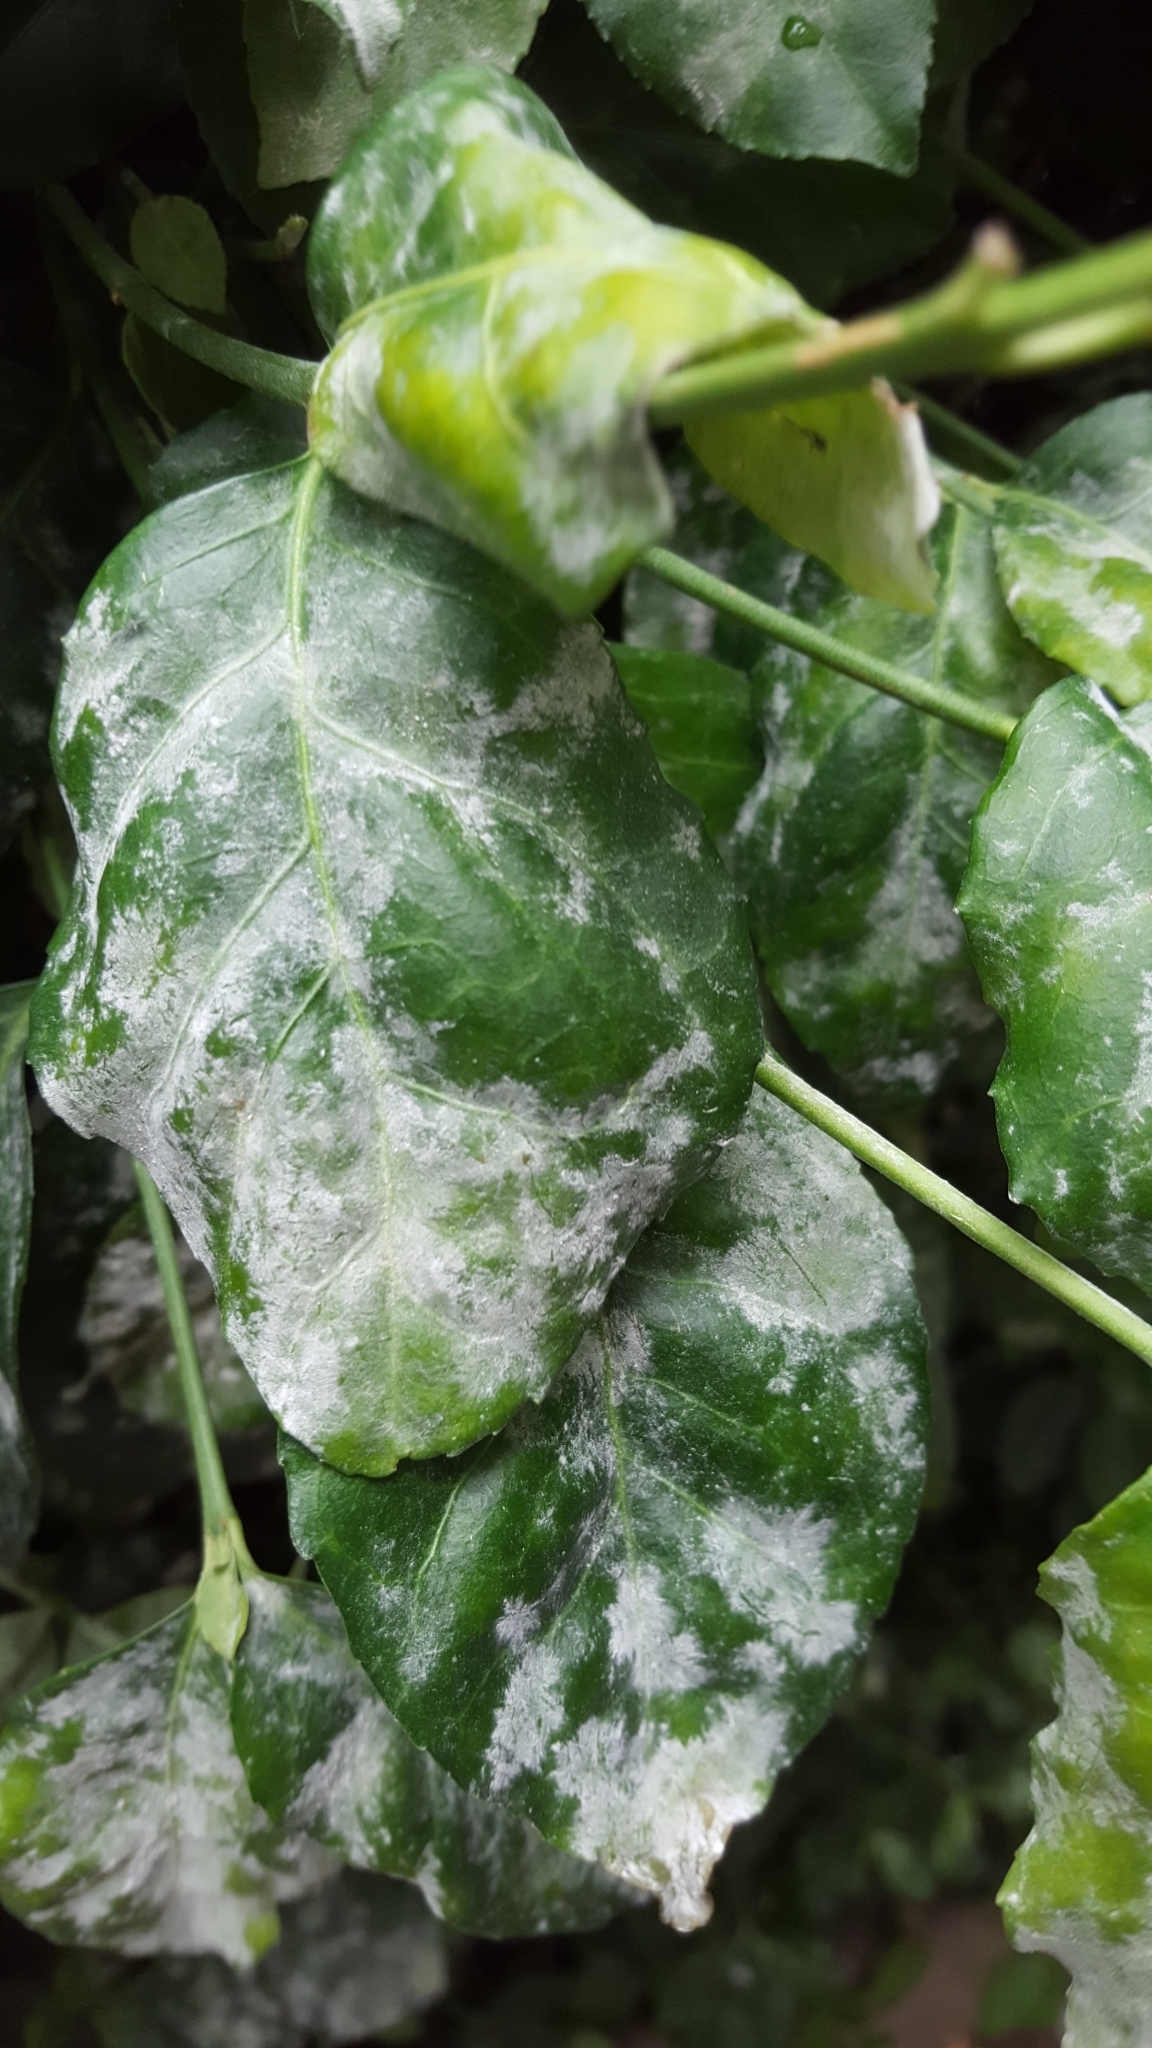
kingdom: Fungi
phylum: Ascomycota
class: Leotiomycetes
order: Helotiales
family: Erysiphaceae
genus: Erysiphe
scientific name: Erysiphe euonymicola
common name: Spindletree mildew
